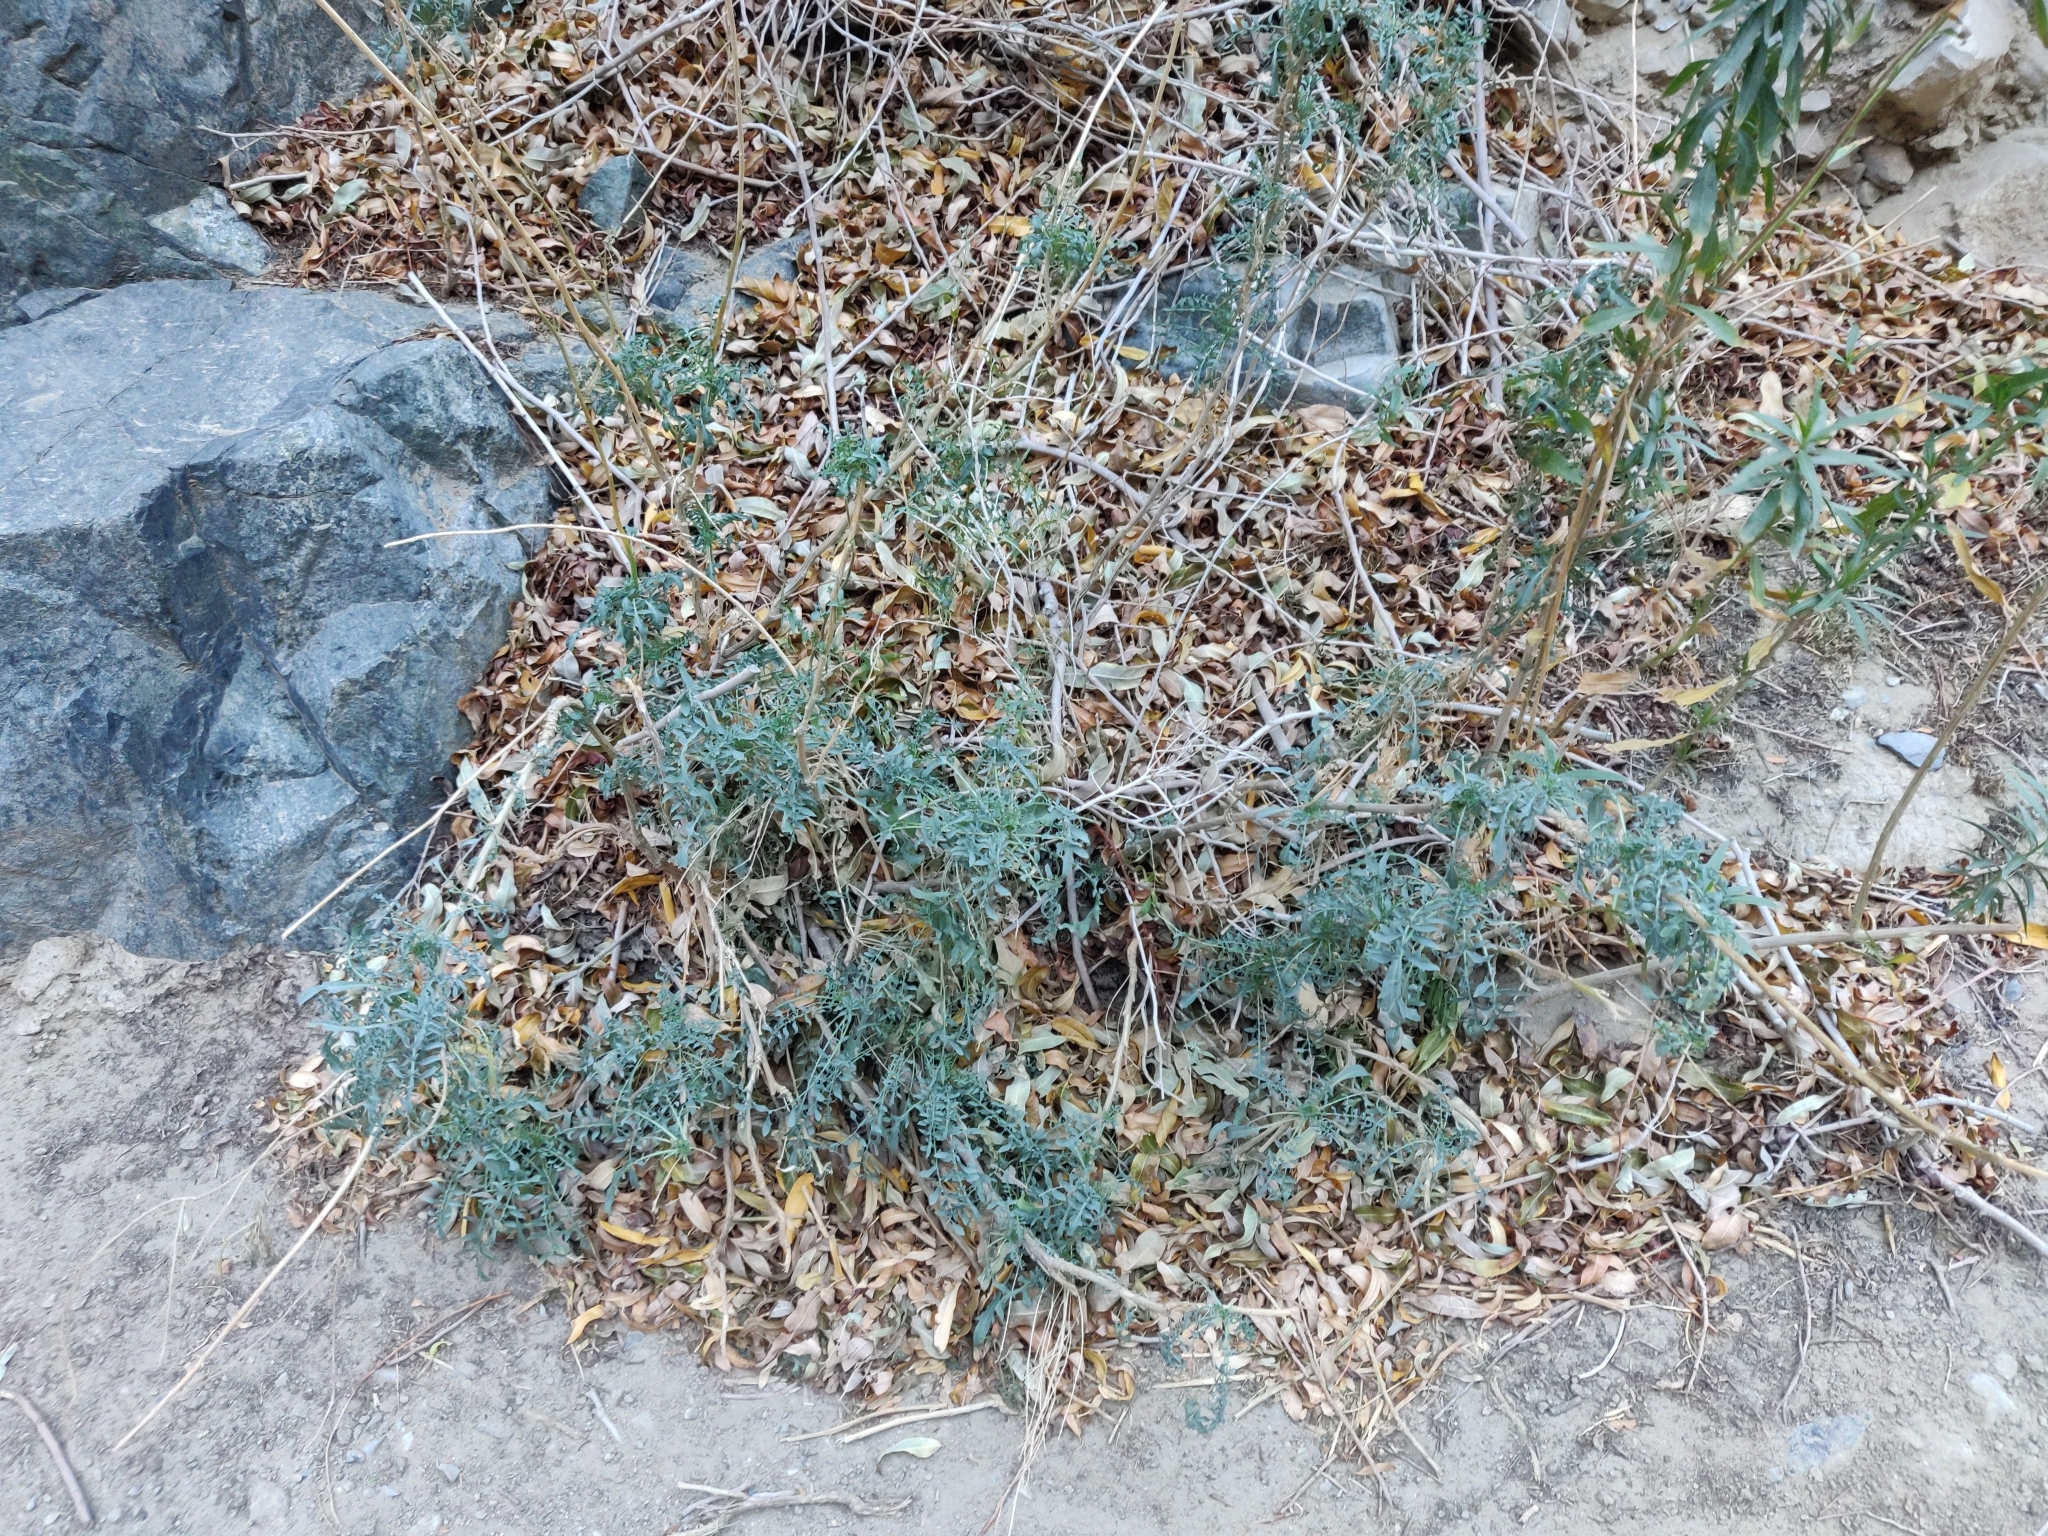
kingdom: Plantae
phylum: Tracheophyta
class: Magnoliopsida
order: Brassicales
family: Brassicaceae
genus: Stanleya
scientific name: Stanleya pinnata
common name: Prince's-plume
